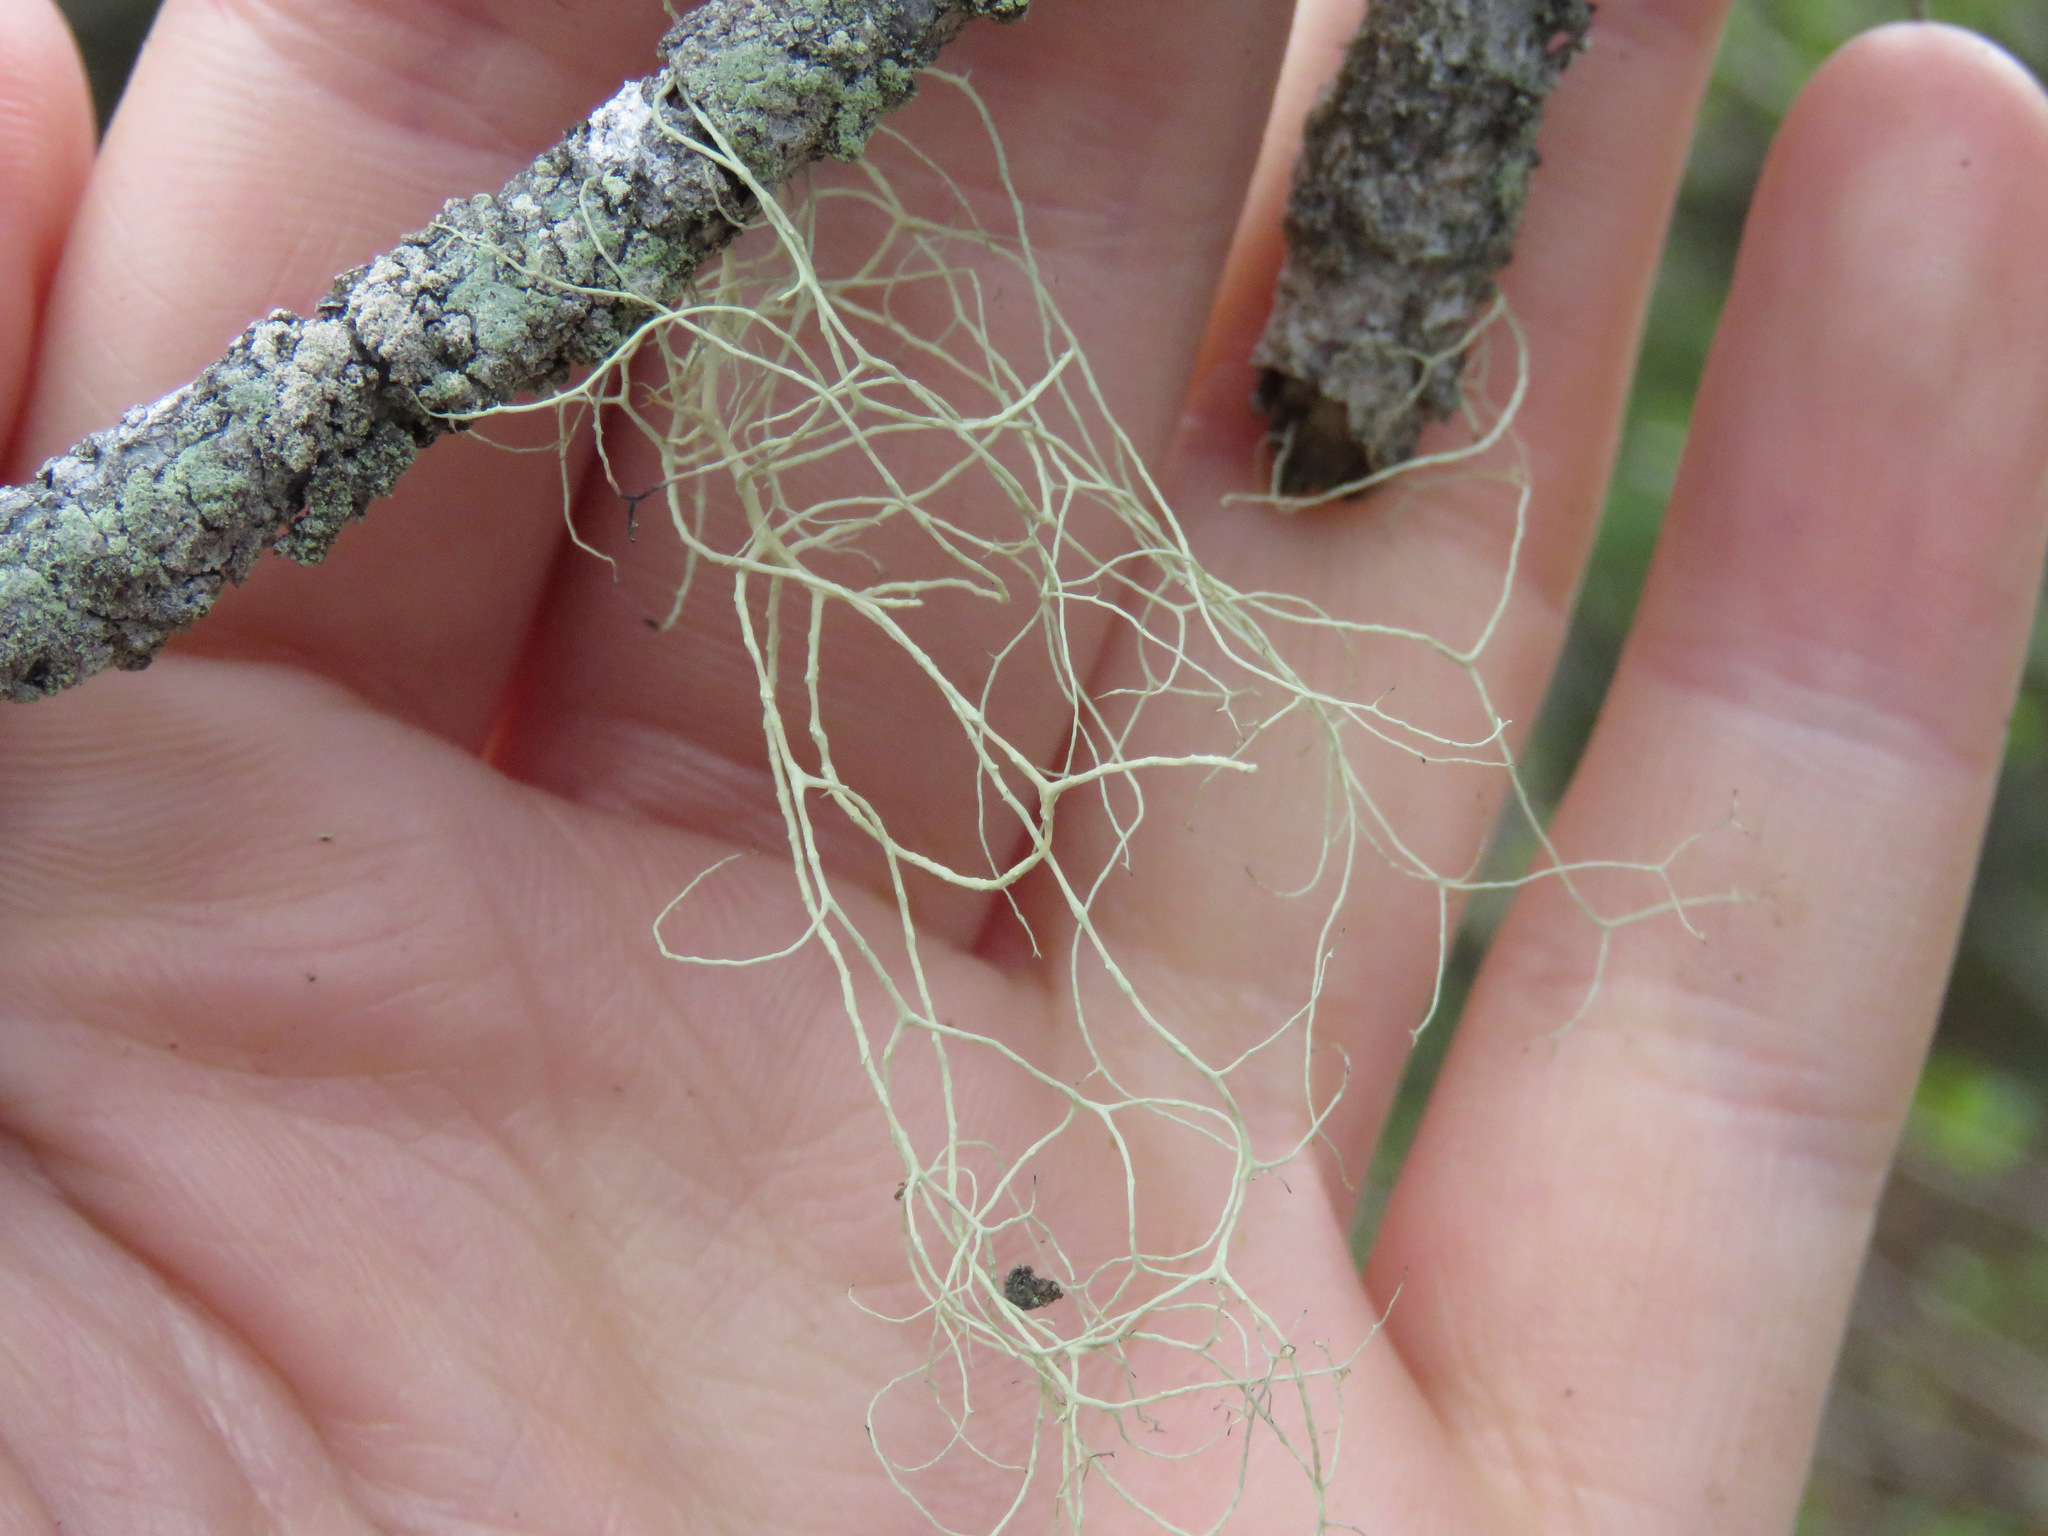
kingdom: Fungi
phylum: Ascomycota
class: Lecanoromycetes
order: Lecanorales
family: Ramalinaceae
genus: Ramalina
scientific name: Ramalina menziesii
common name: Lace lichen
